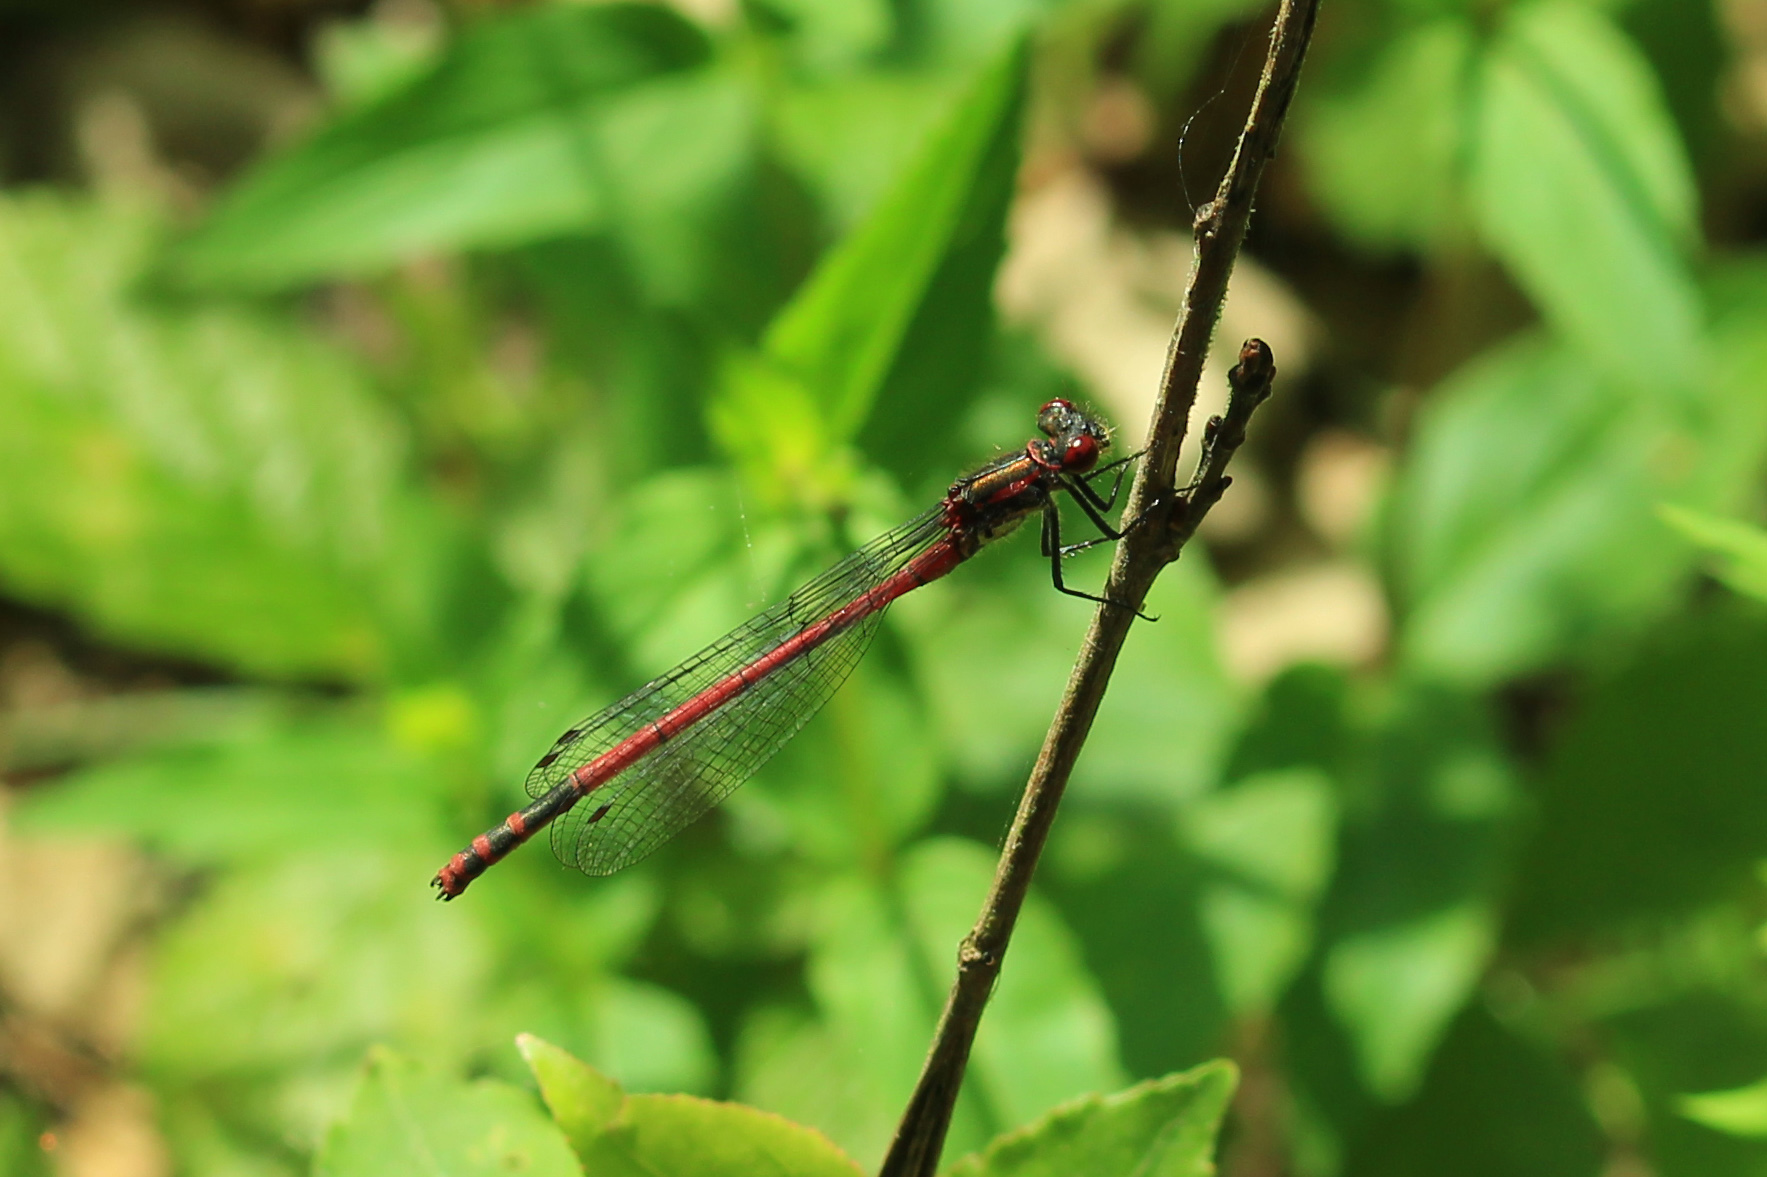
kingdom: Animalia
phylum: Arthropoda
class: Insecta
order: Odonata
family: Coenagrionidae
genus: Pyrrhosoma
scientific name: Pyrrhosoma nymphula
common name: Large red damsel
